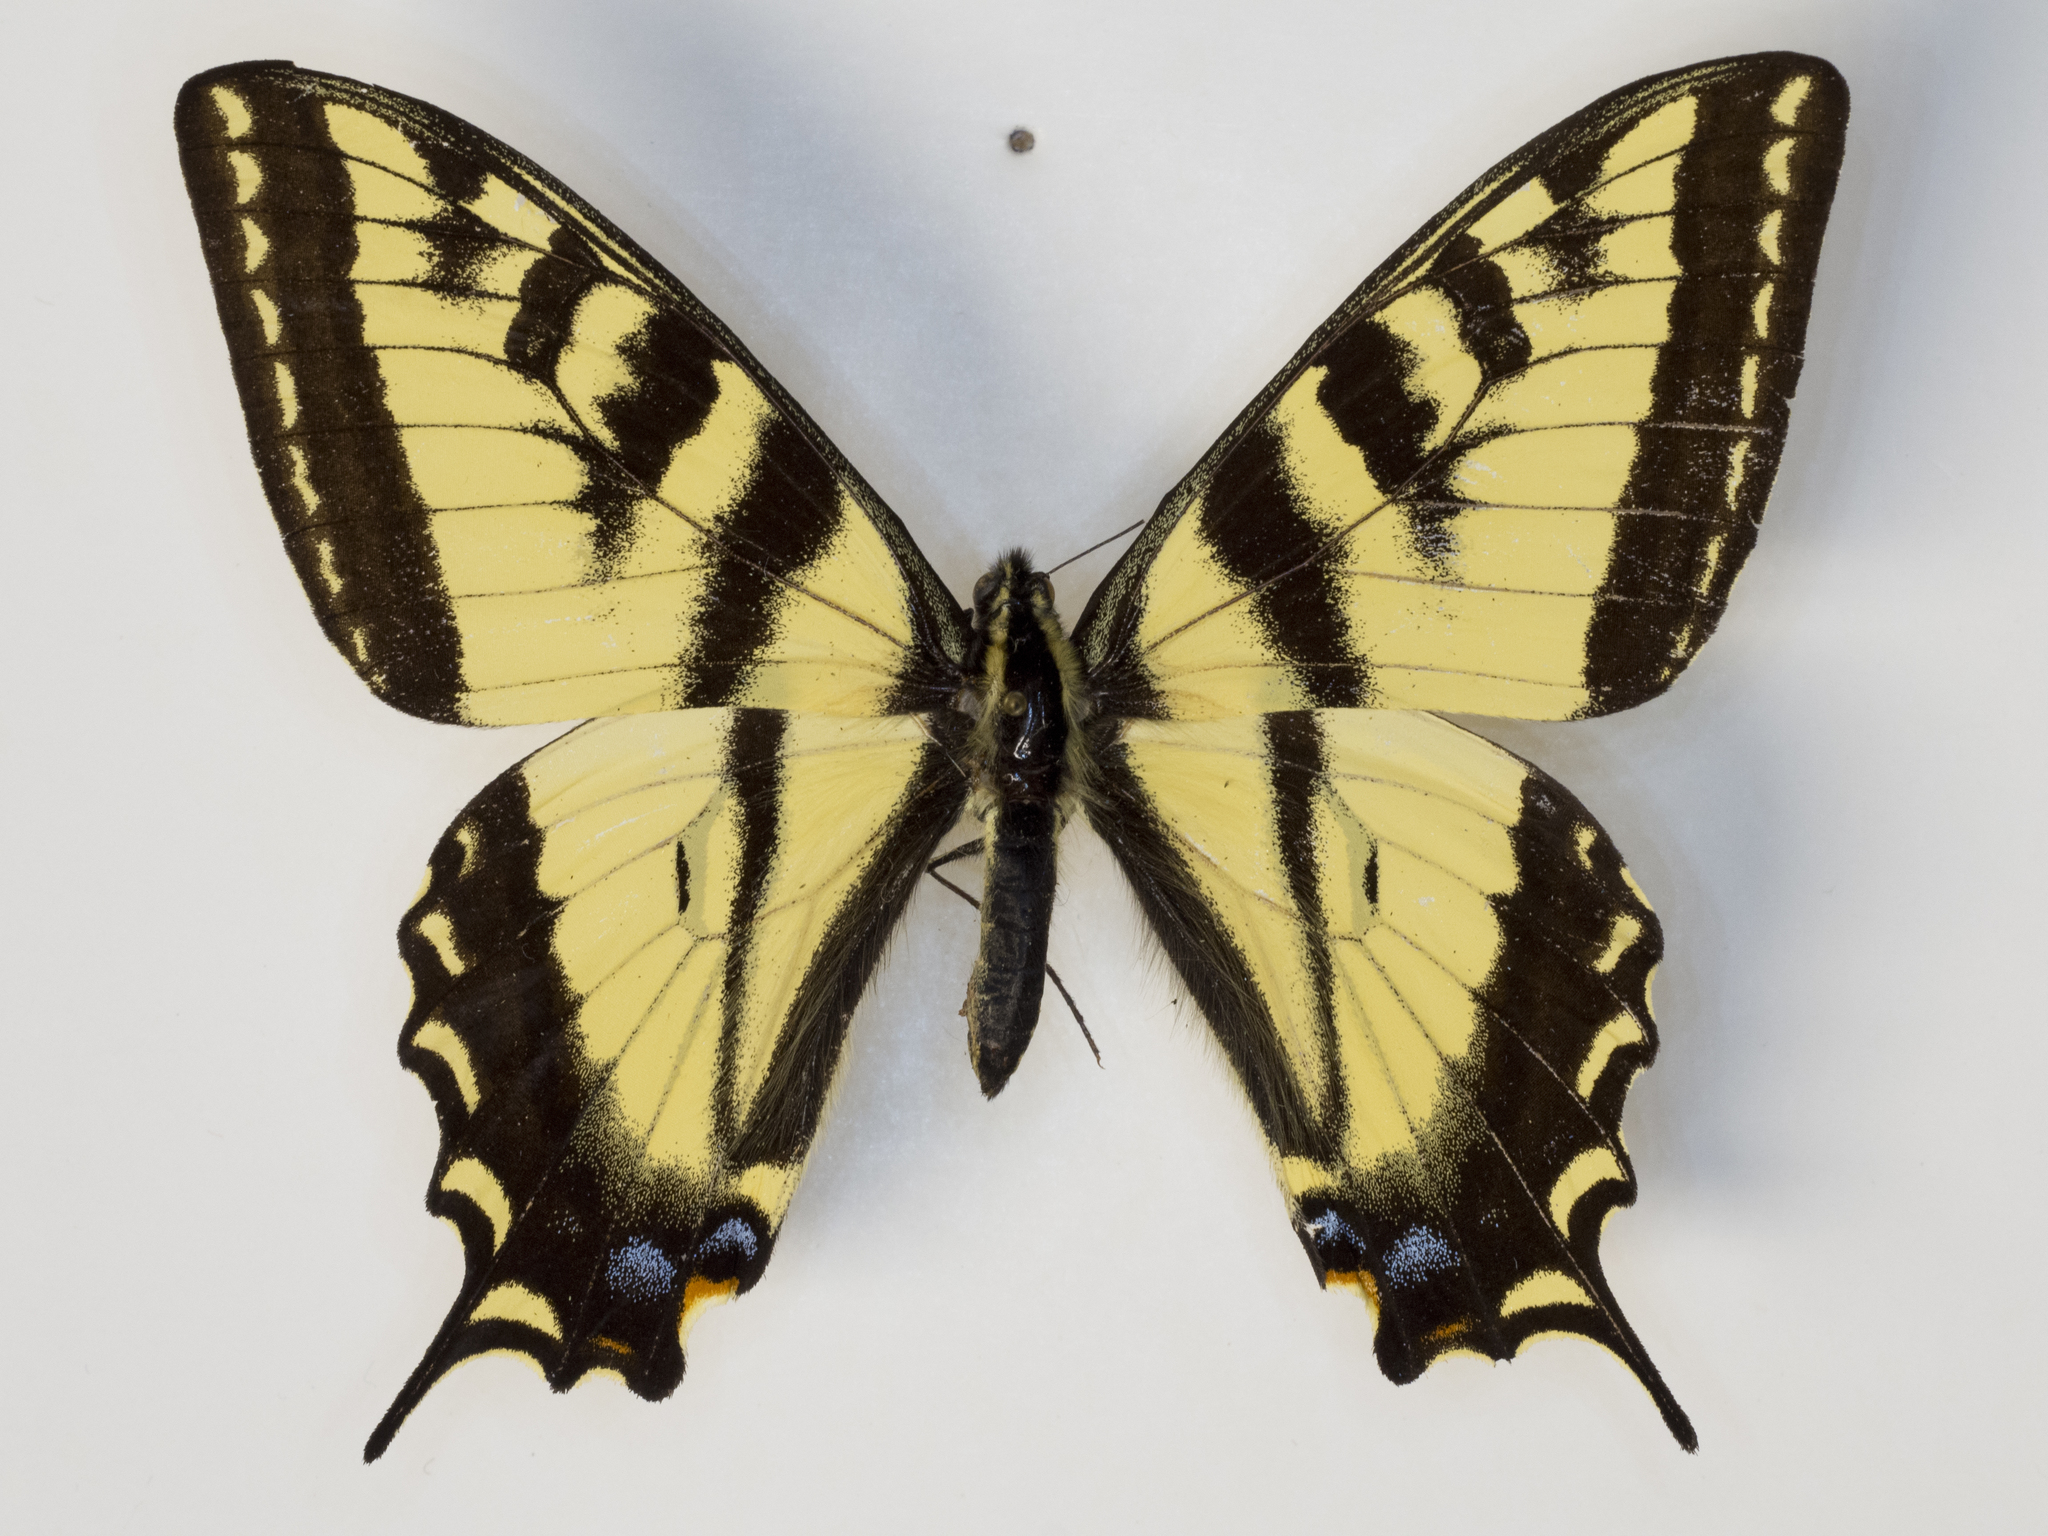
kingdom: Animalia
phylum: Arthropoda
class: Insecta
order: Lepidoptera
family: Papilionidae
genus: Papilio
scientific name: Papilio rutulus
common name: Western tiger swallowtail
